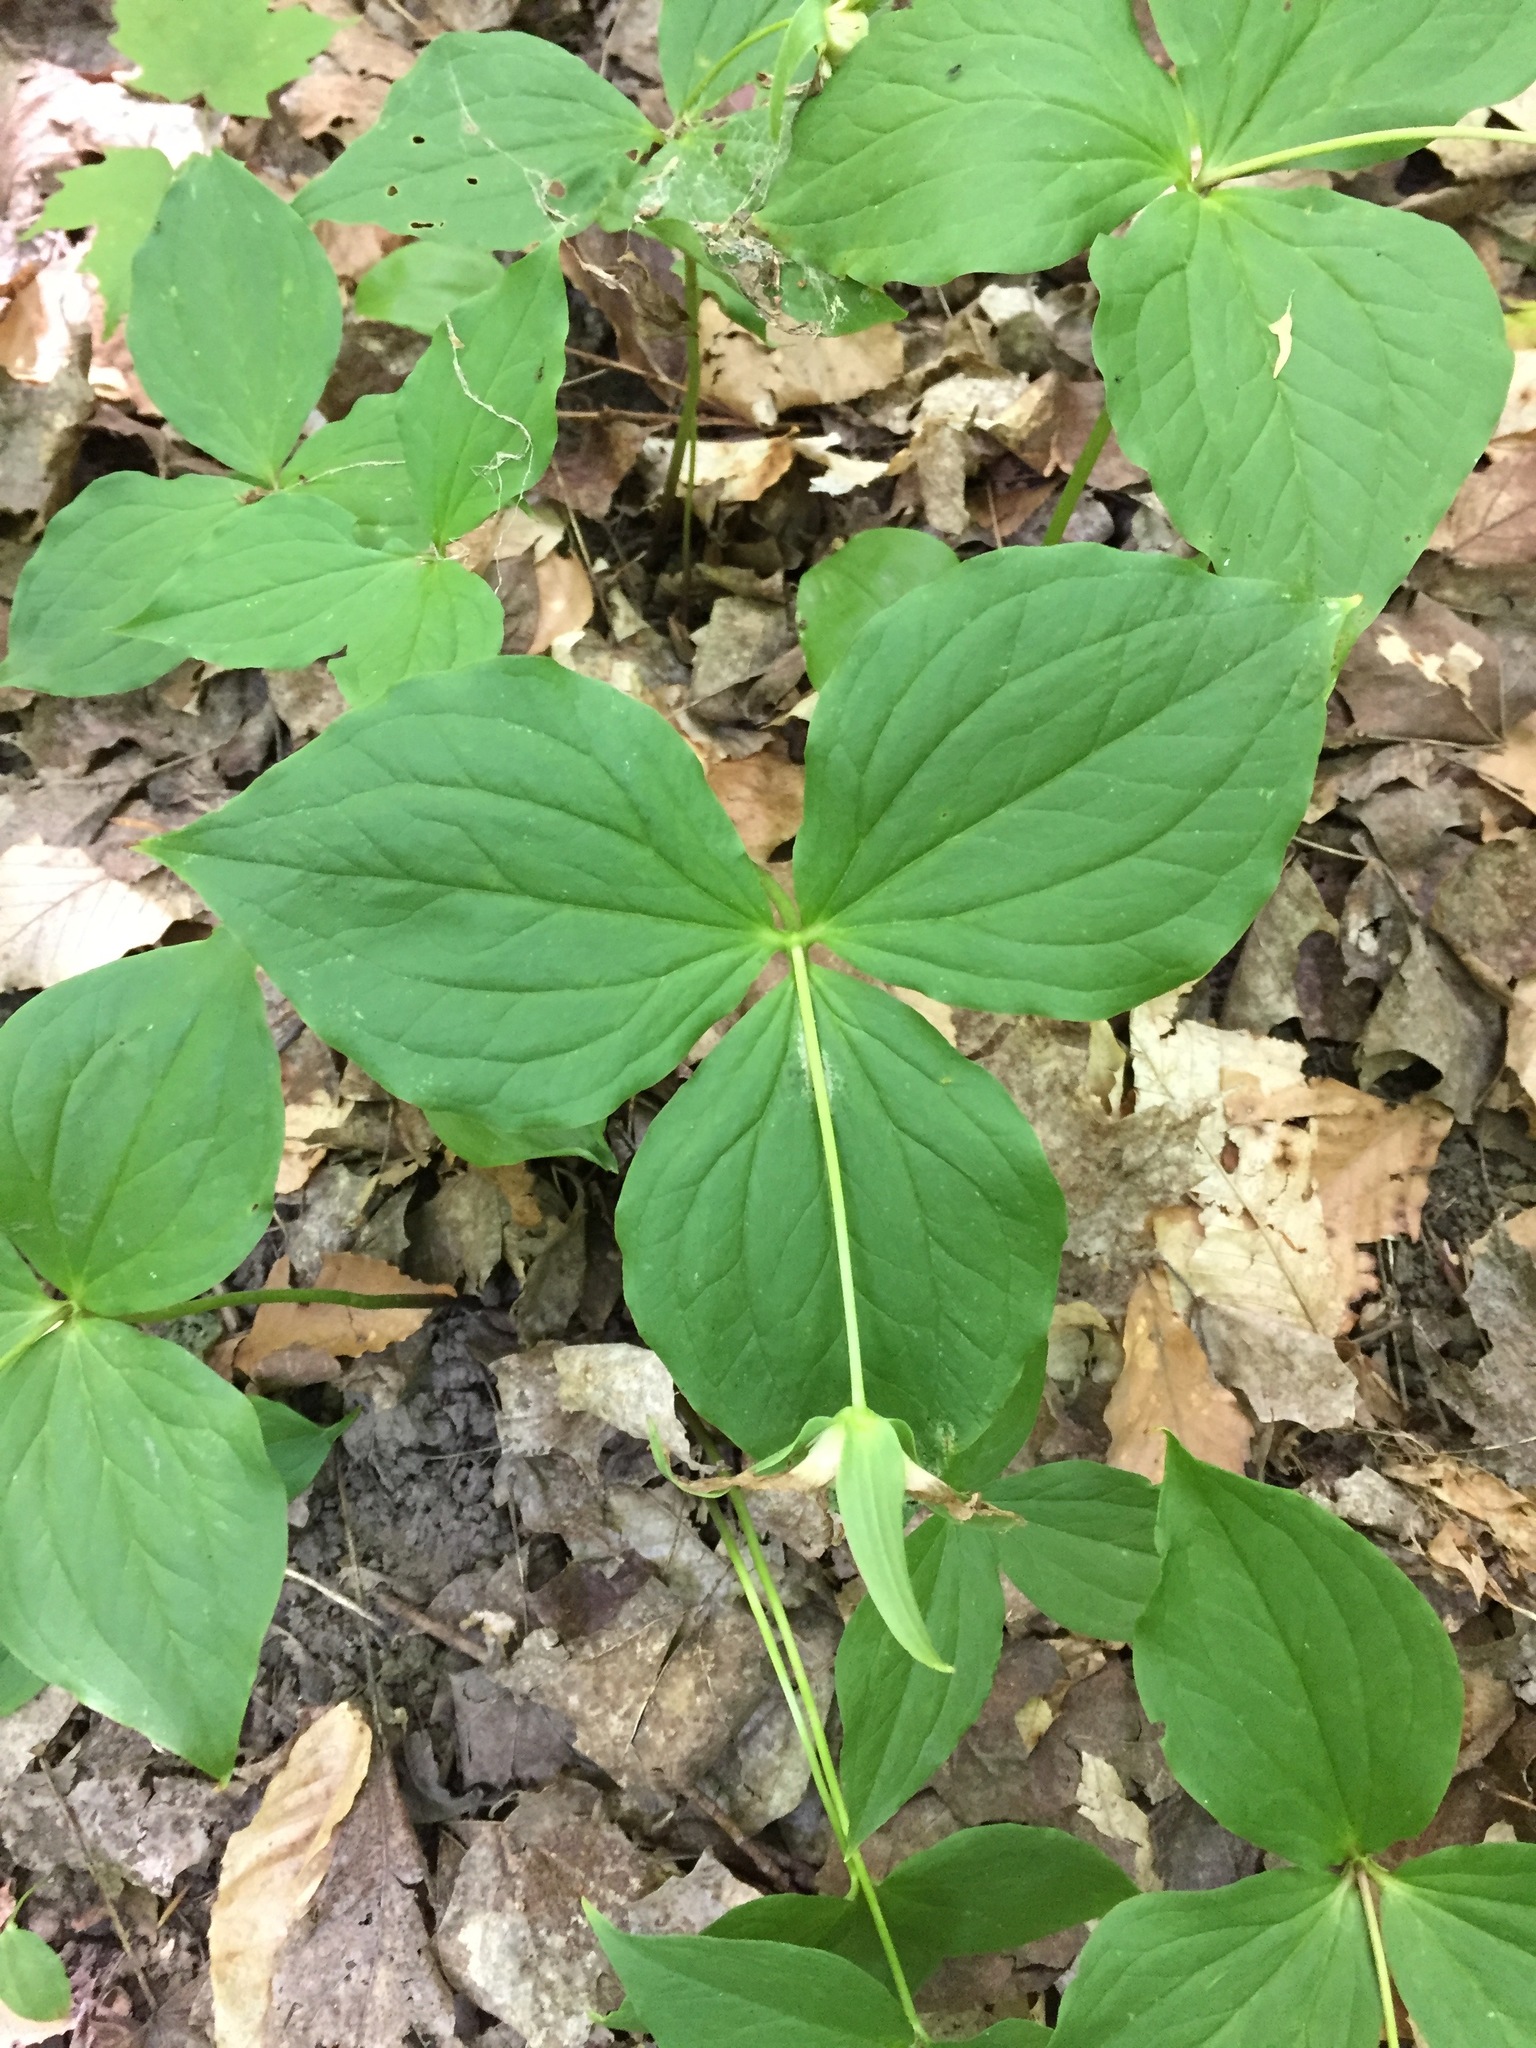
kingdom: Plantae
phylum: Tracheophyta
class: Liliopsida
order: Liliales
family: Melanthiaceae
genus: Trillium
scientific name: Trillium grandiflorum
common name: Great white trillium
